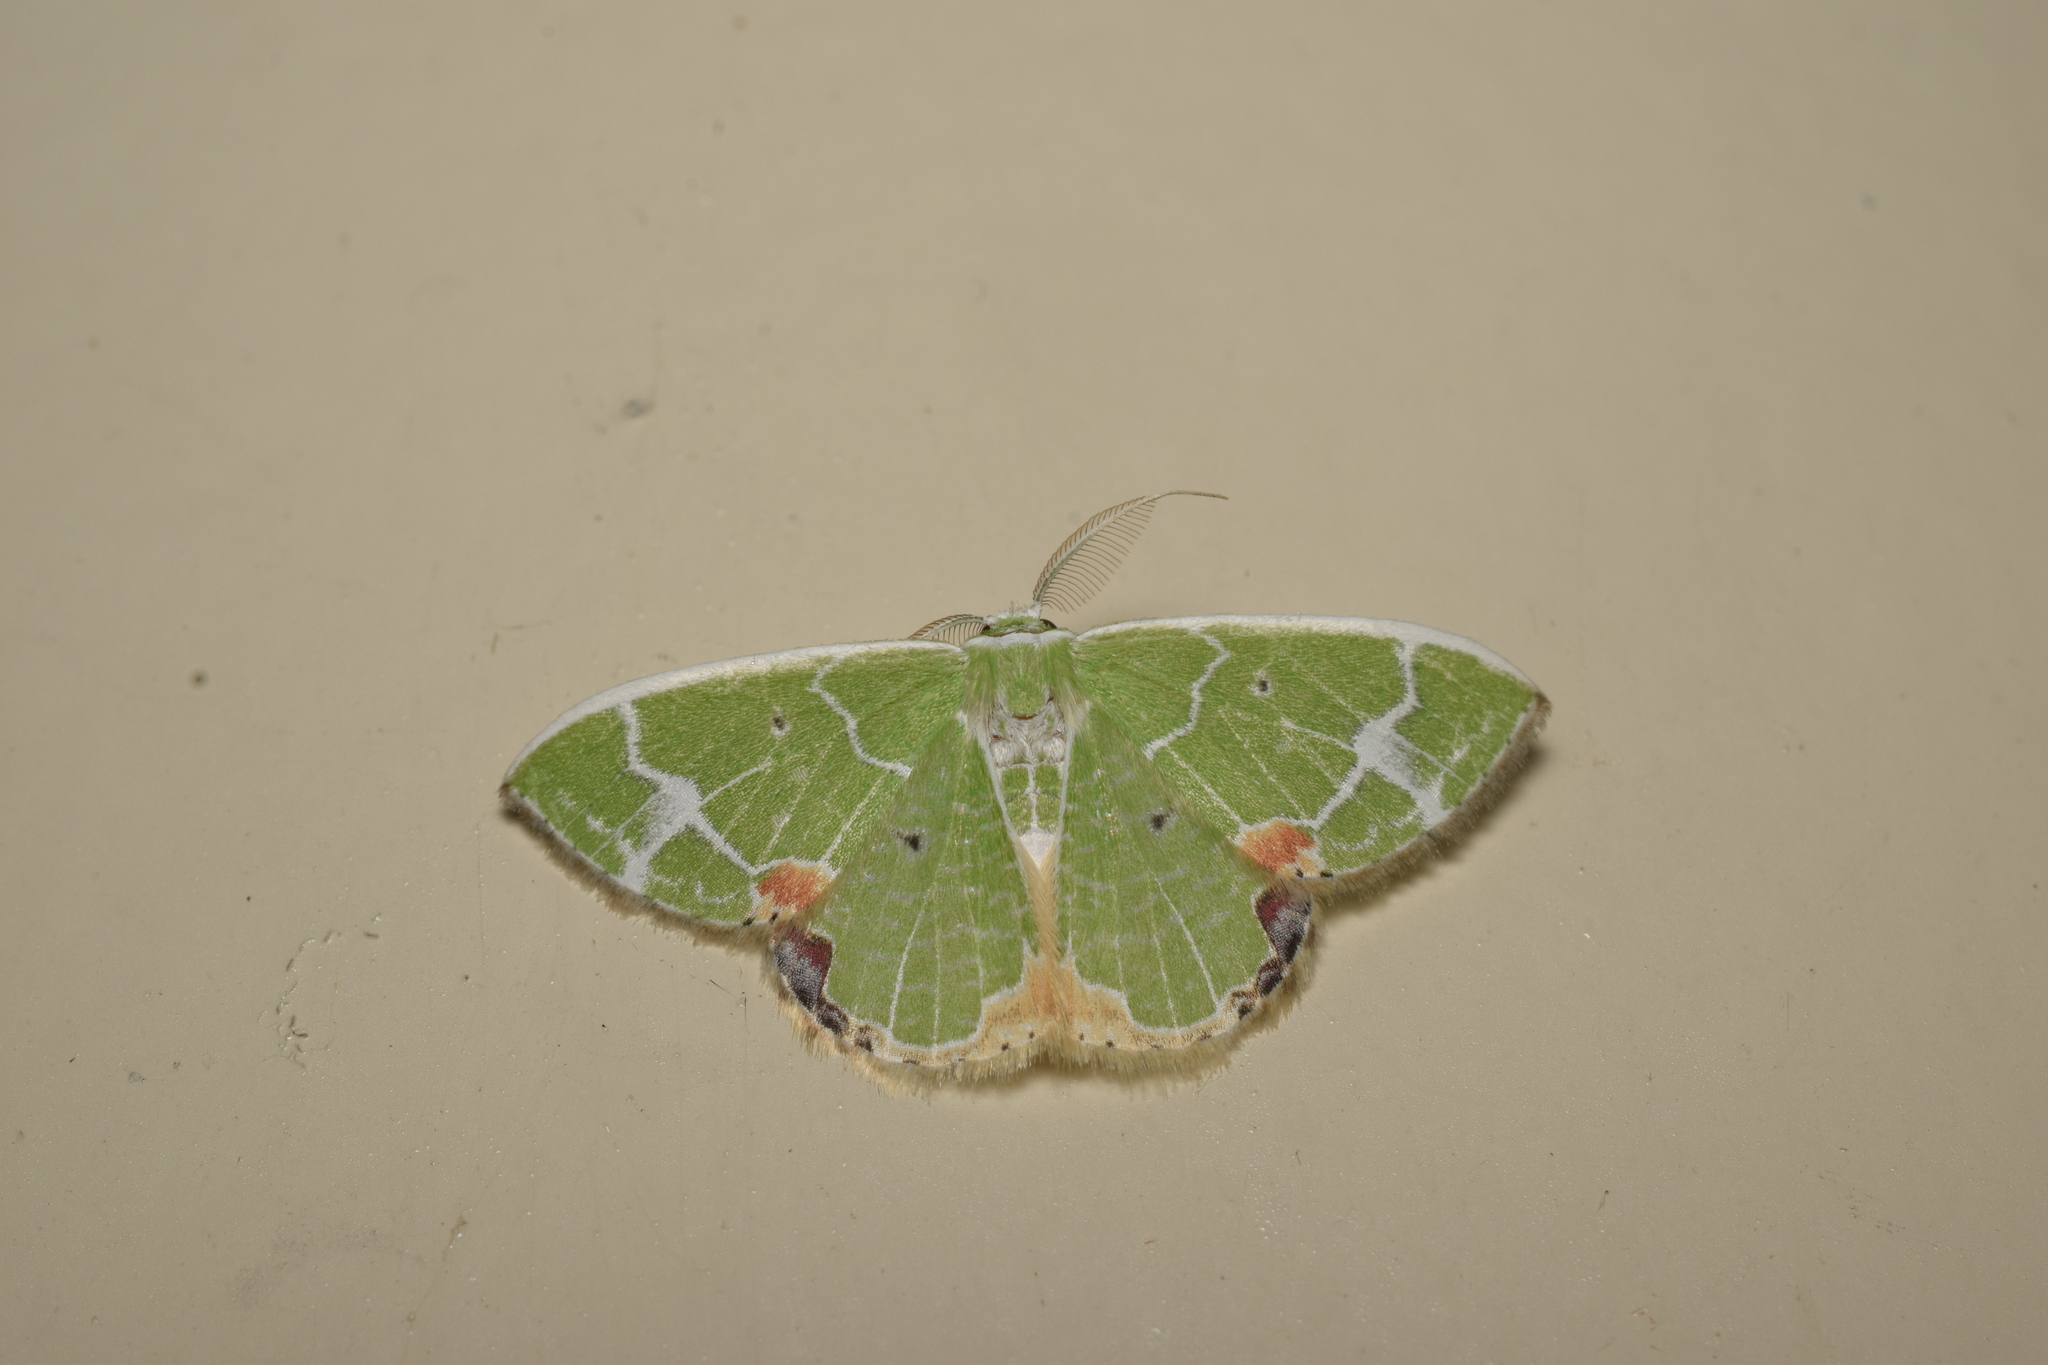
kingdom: Animalia
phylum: Arthropoda
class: Insecta
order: Lepidoptera
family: Geometridae
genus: Comibaena
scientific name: Comibaena nigromacularia
